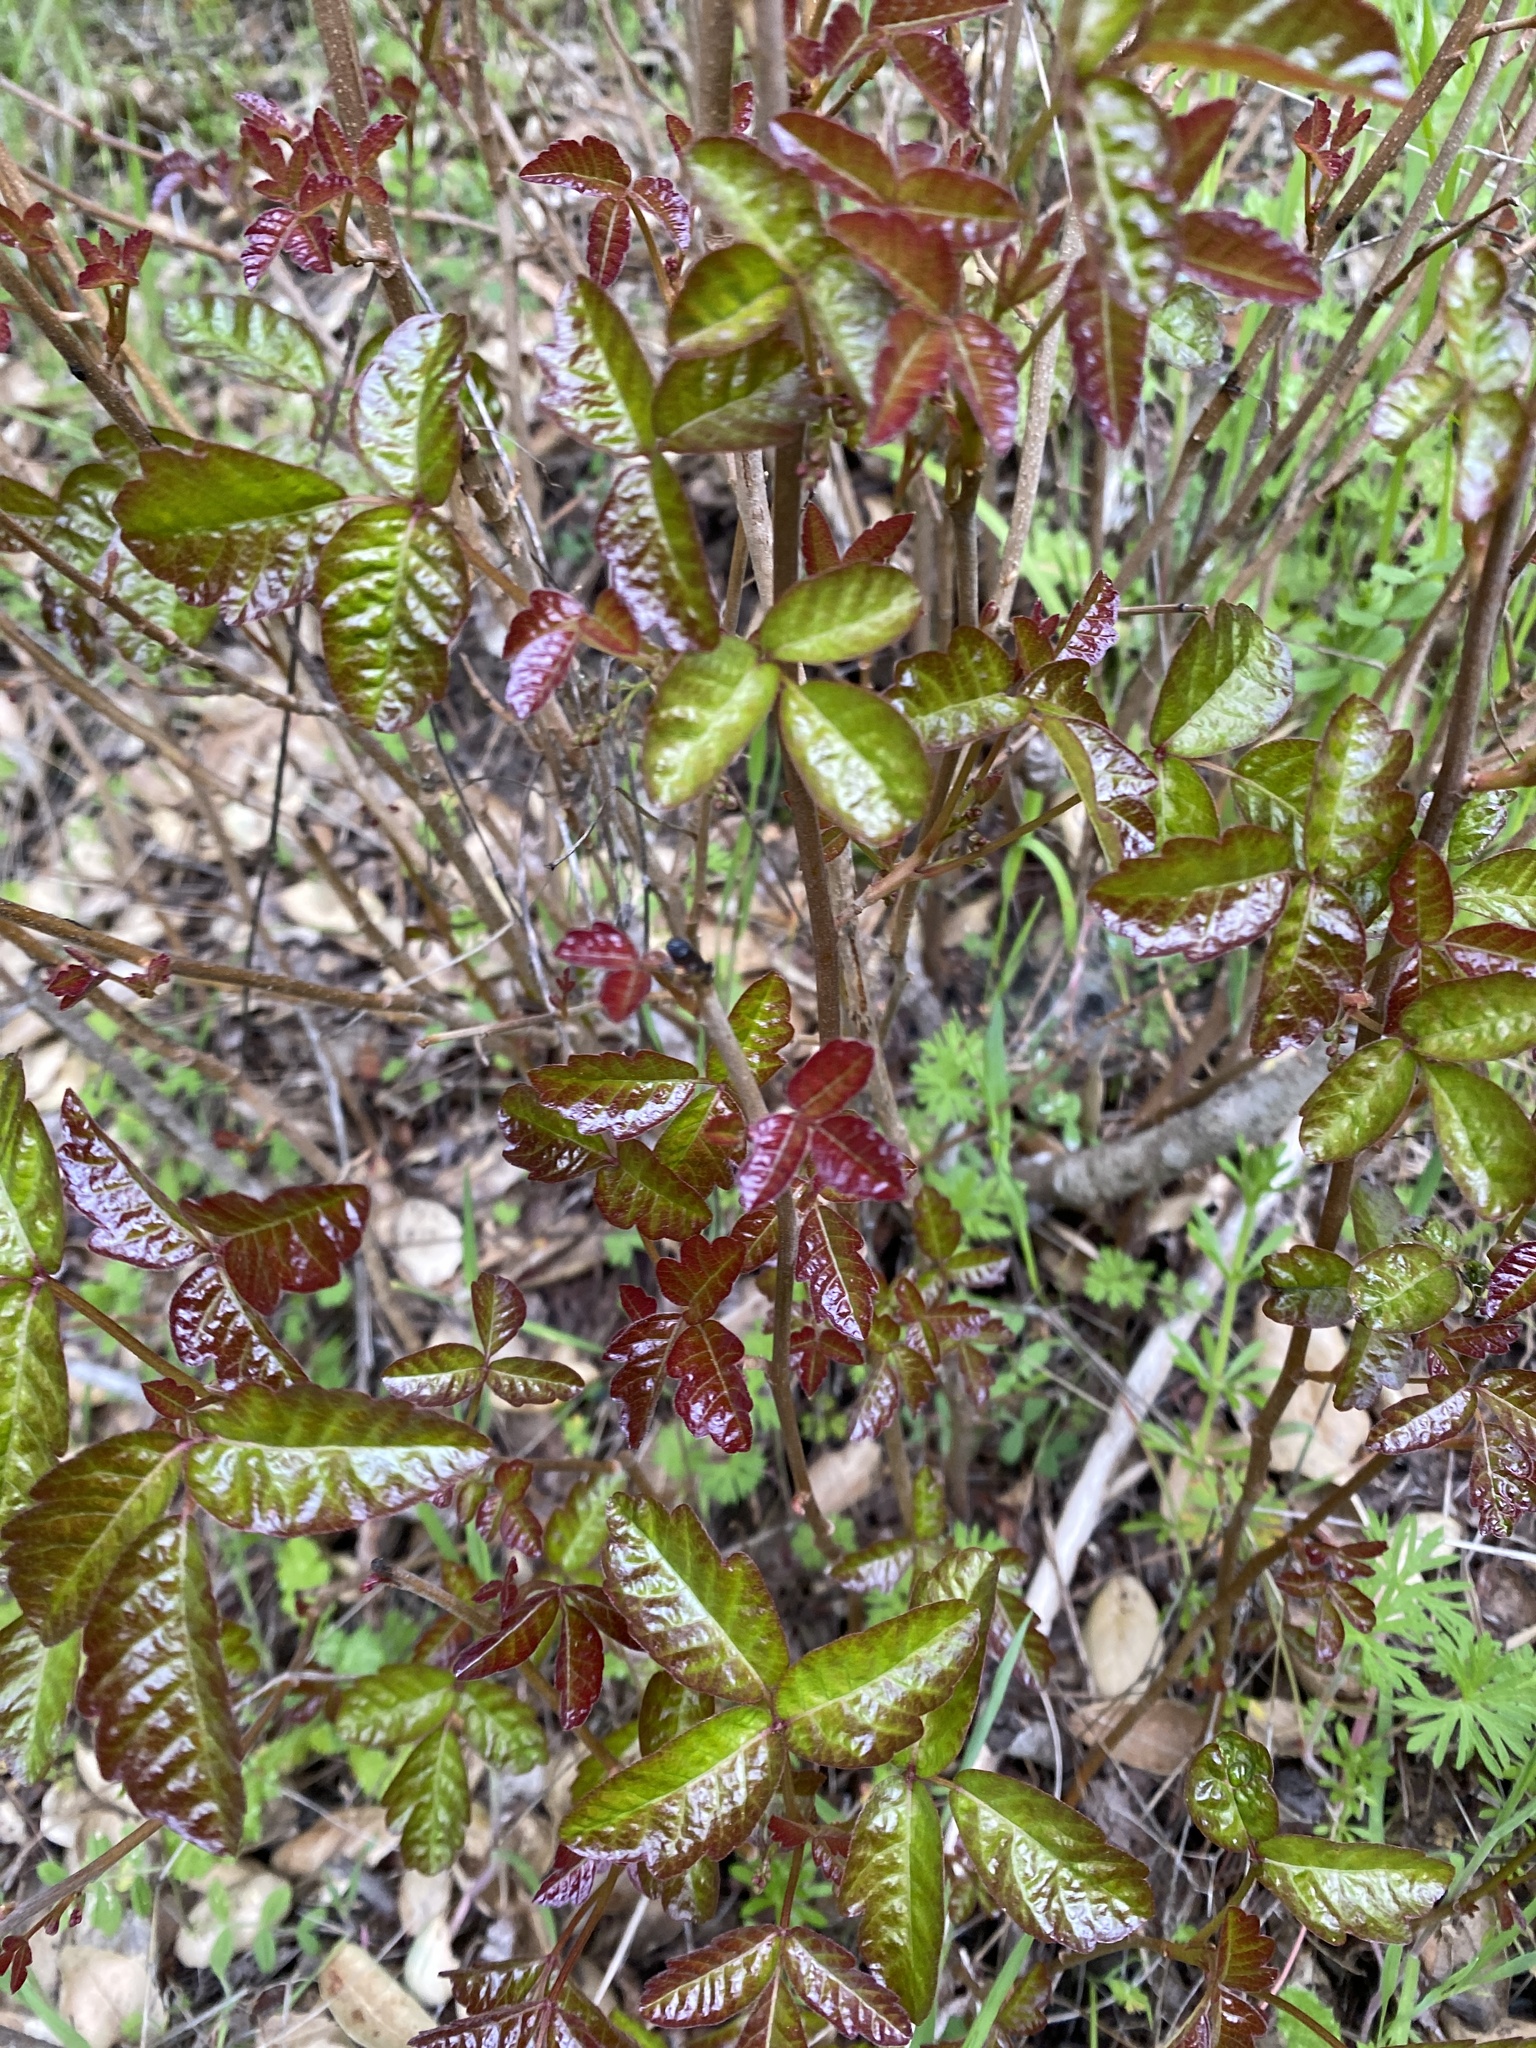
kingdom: Plantae
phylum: Tracheophyta
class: Magnoliopsida
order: Sapindales
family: Anacardiaceae
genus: Toxicodendron
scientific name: Toxicodendron diversilobum
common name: Pacific poison-oak
